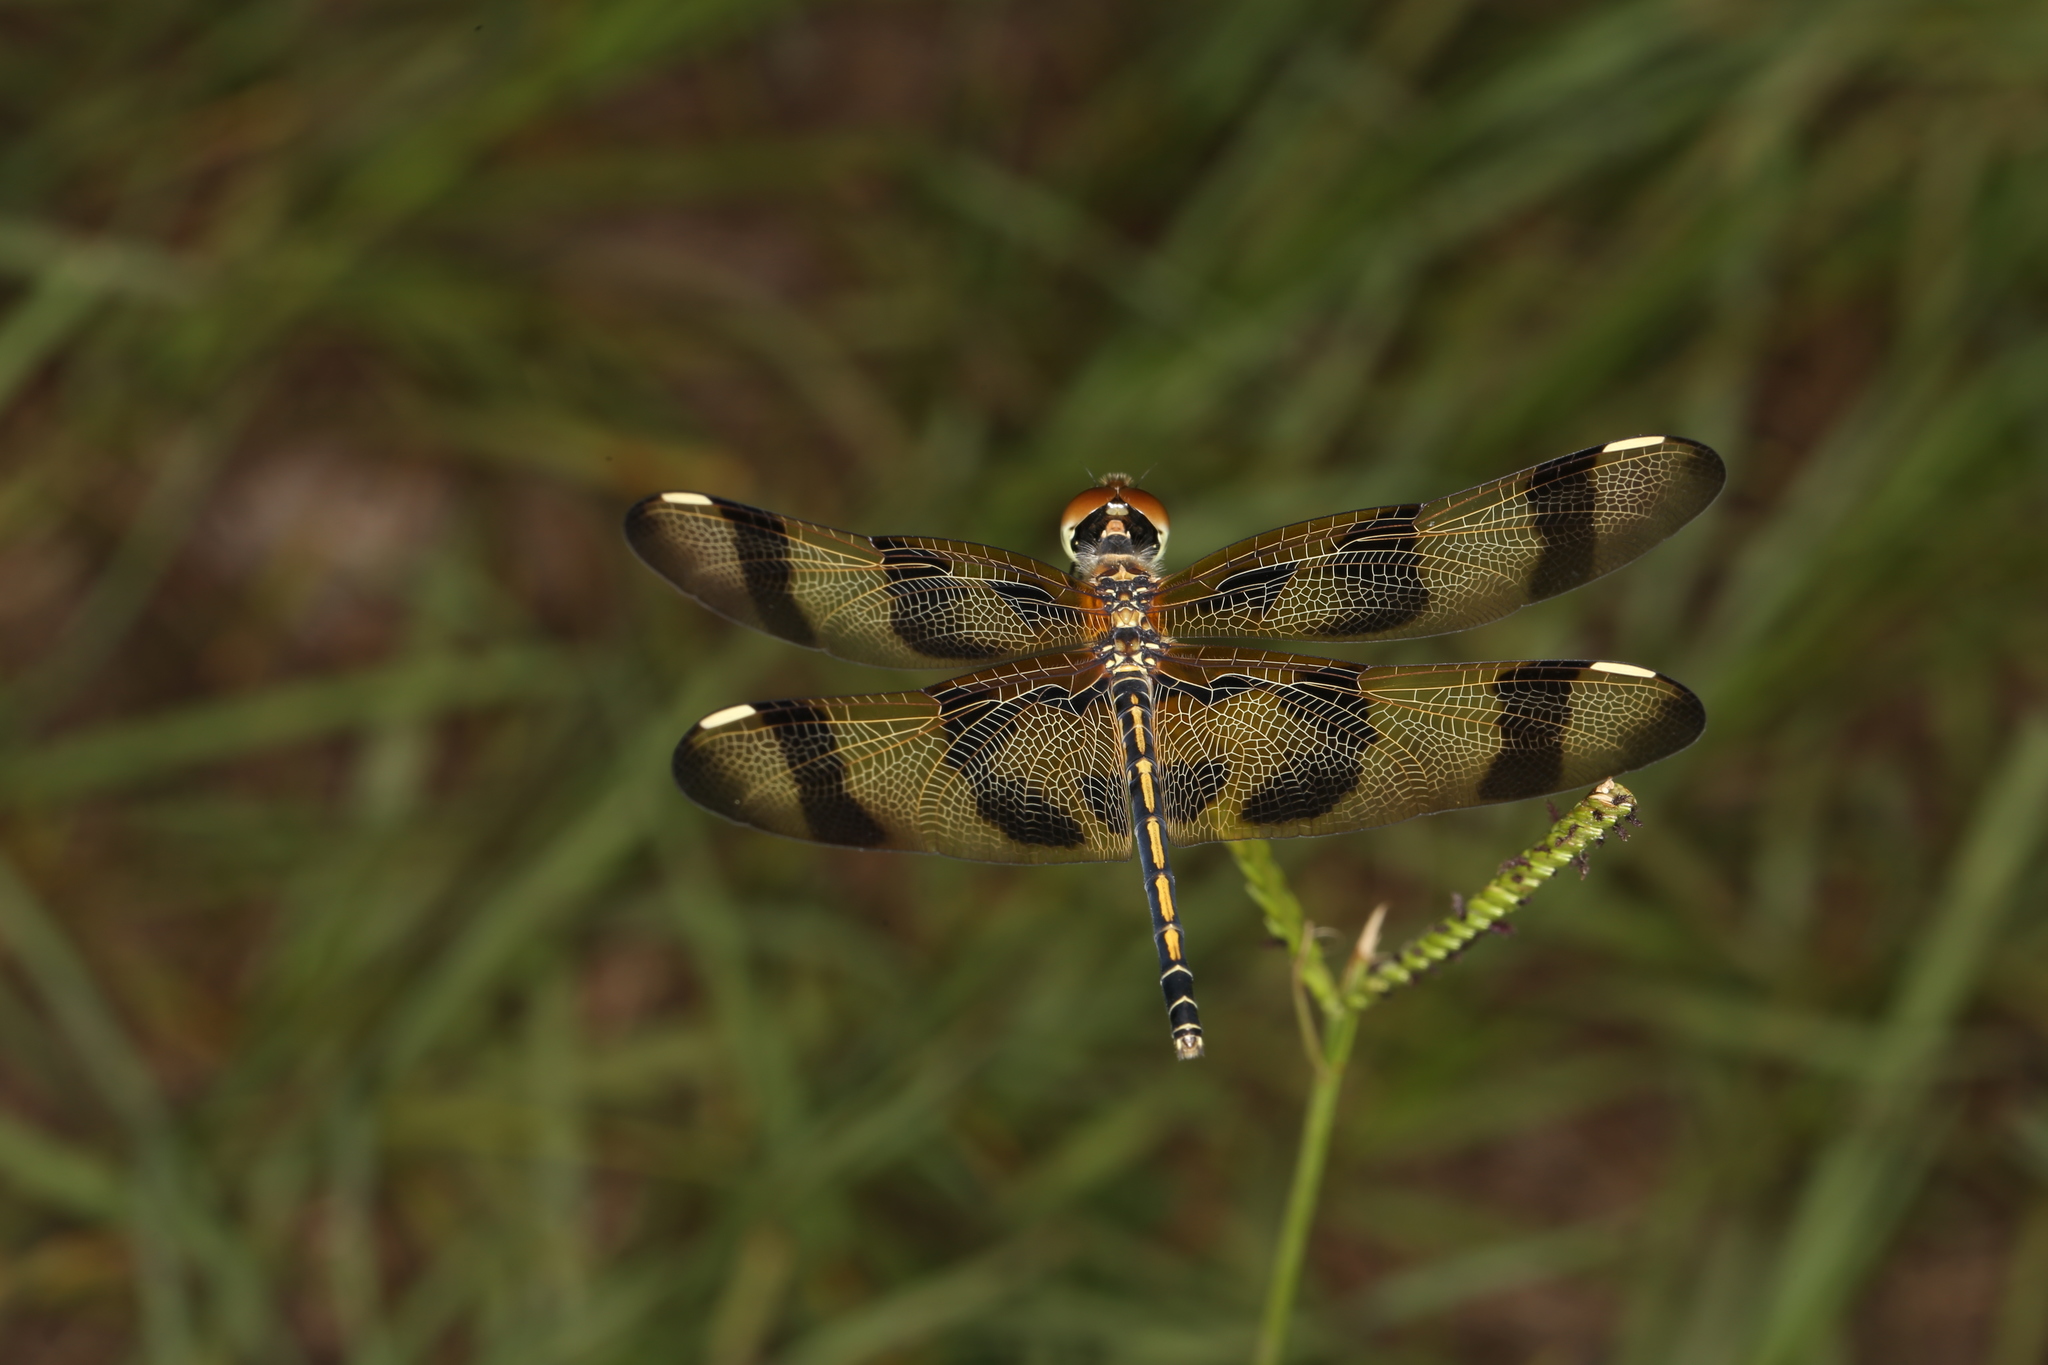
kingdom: Animalia
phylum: Arthropoda
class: Insecta
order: Odonata
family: Libellulidae
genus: Celithemis
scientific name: Celithemis eponina
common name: Halloween pennant
